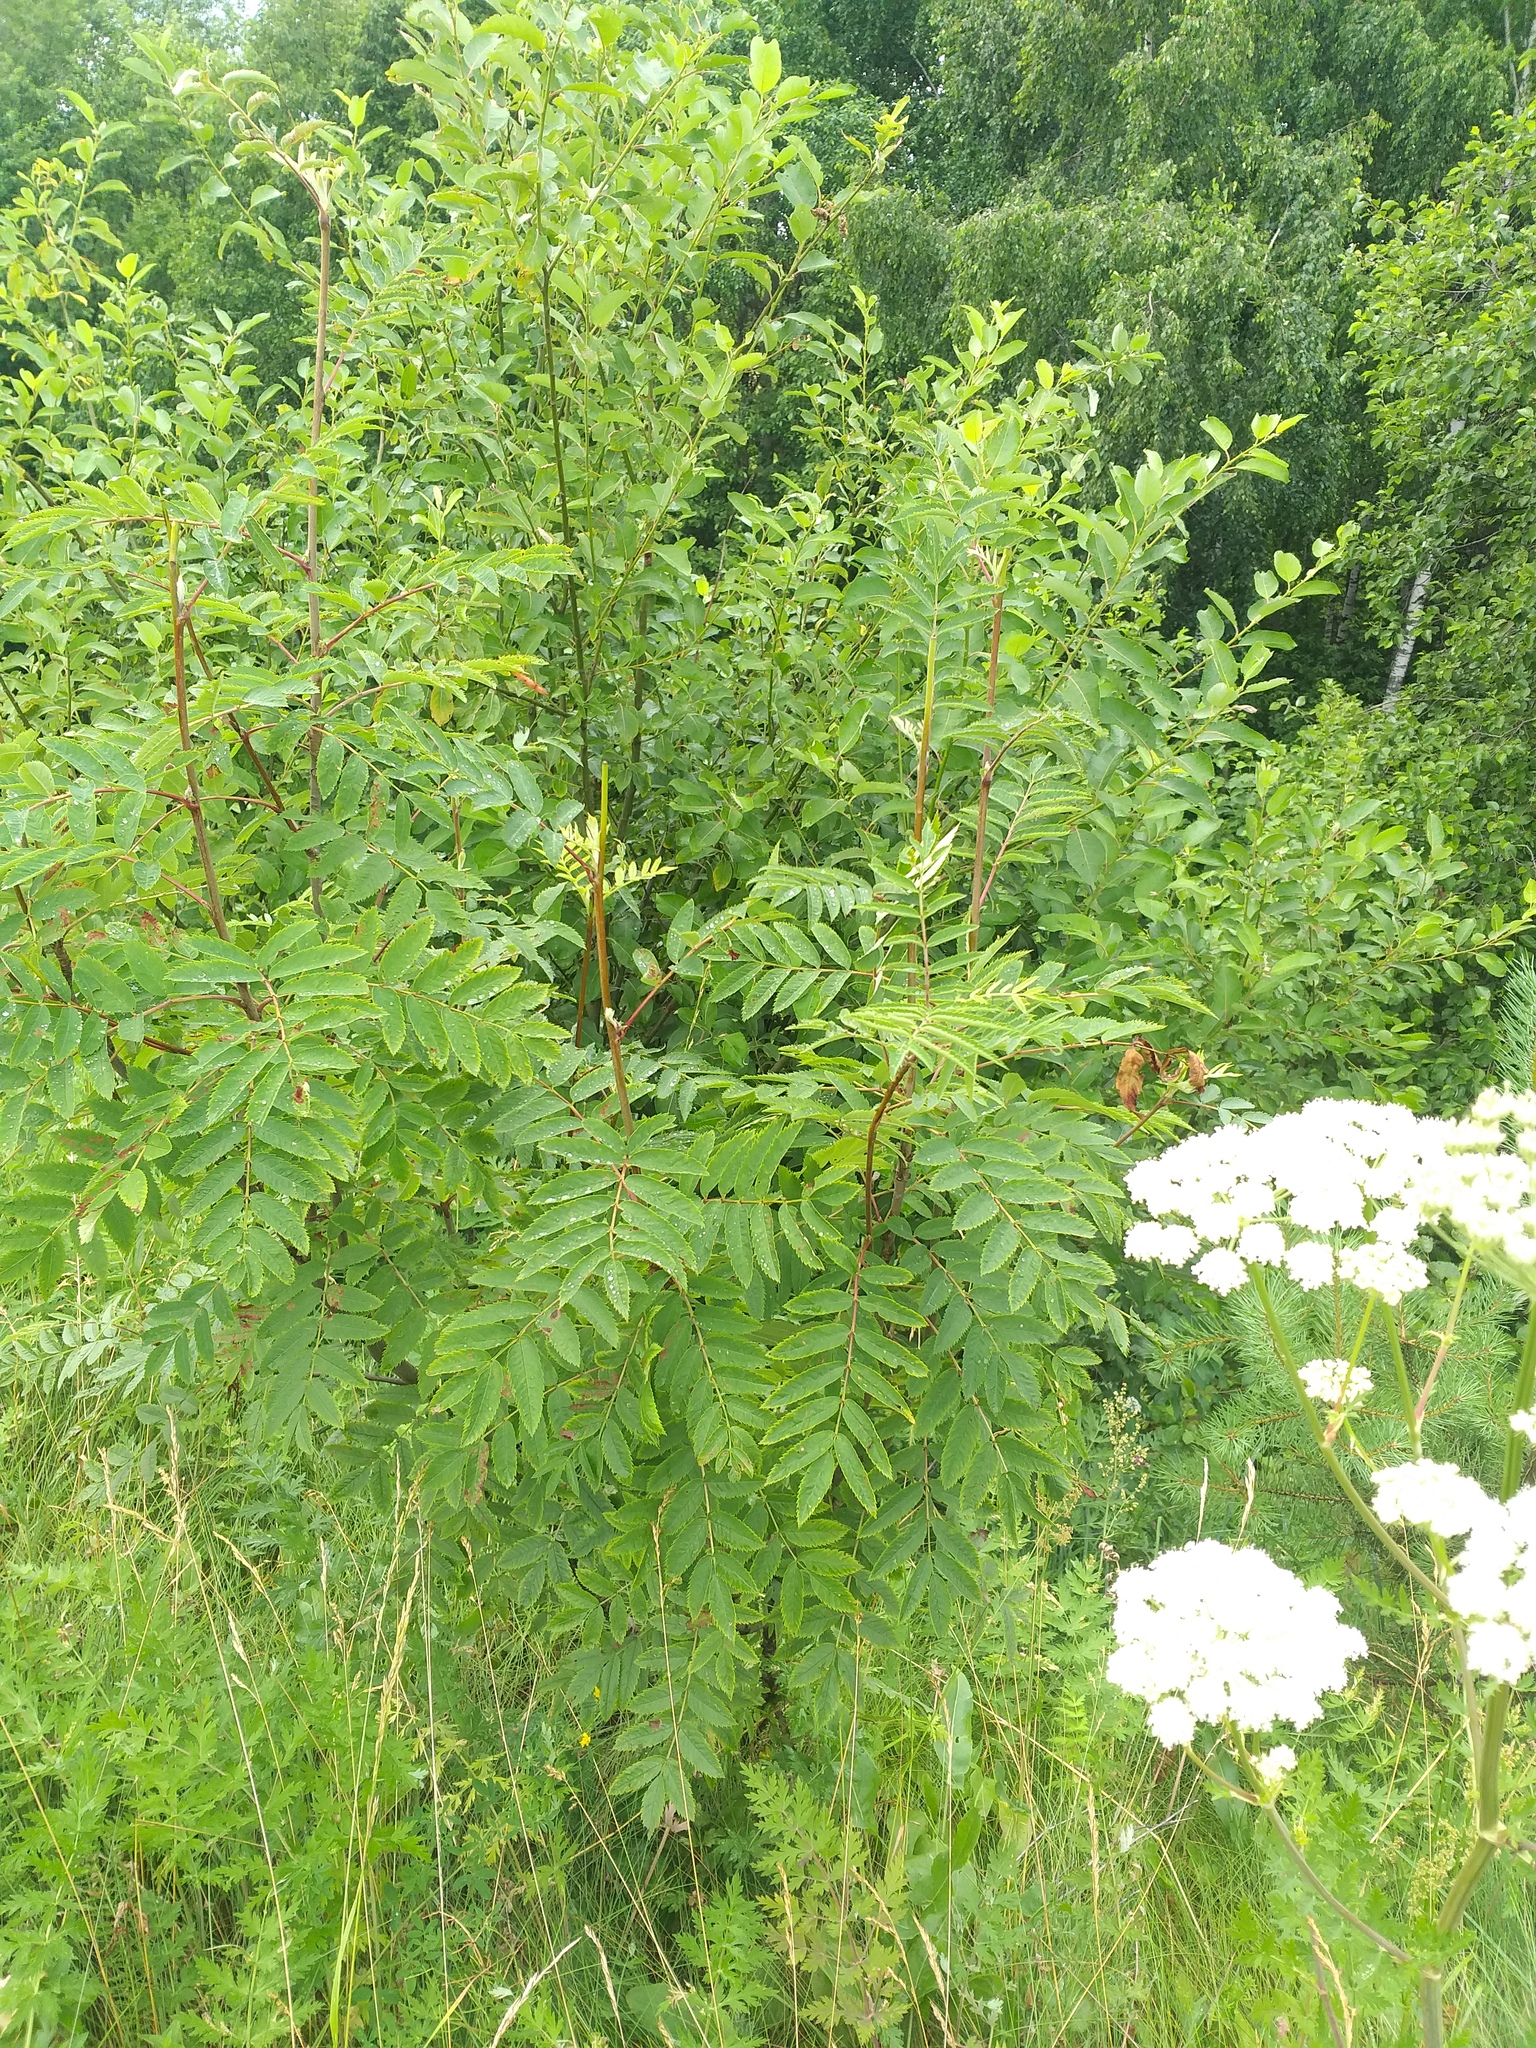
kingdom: Plantae
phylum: Tracheophyta
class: Magnoliopsida
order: Rosales
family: Rosaceae
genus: Sorbus
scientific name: Sorbus aucuparia
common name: Rowan
